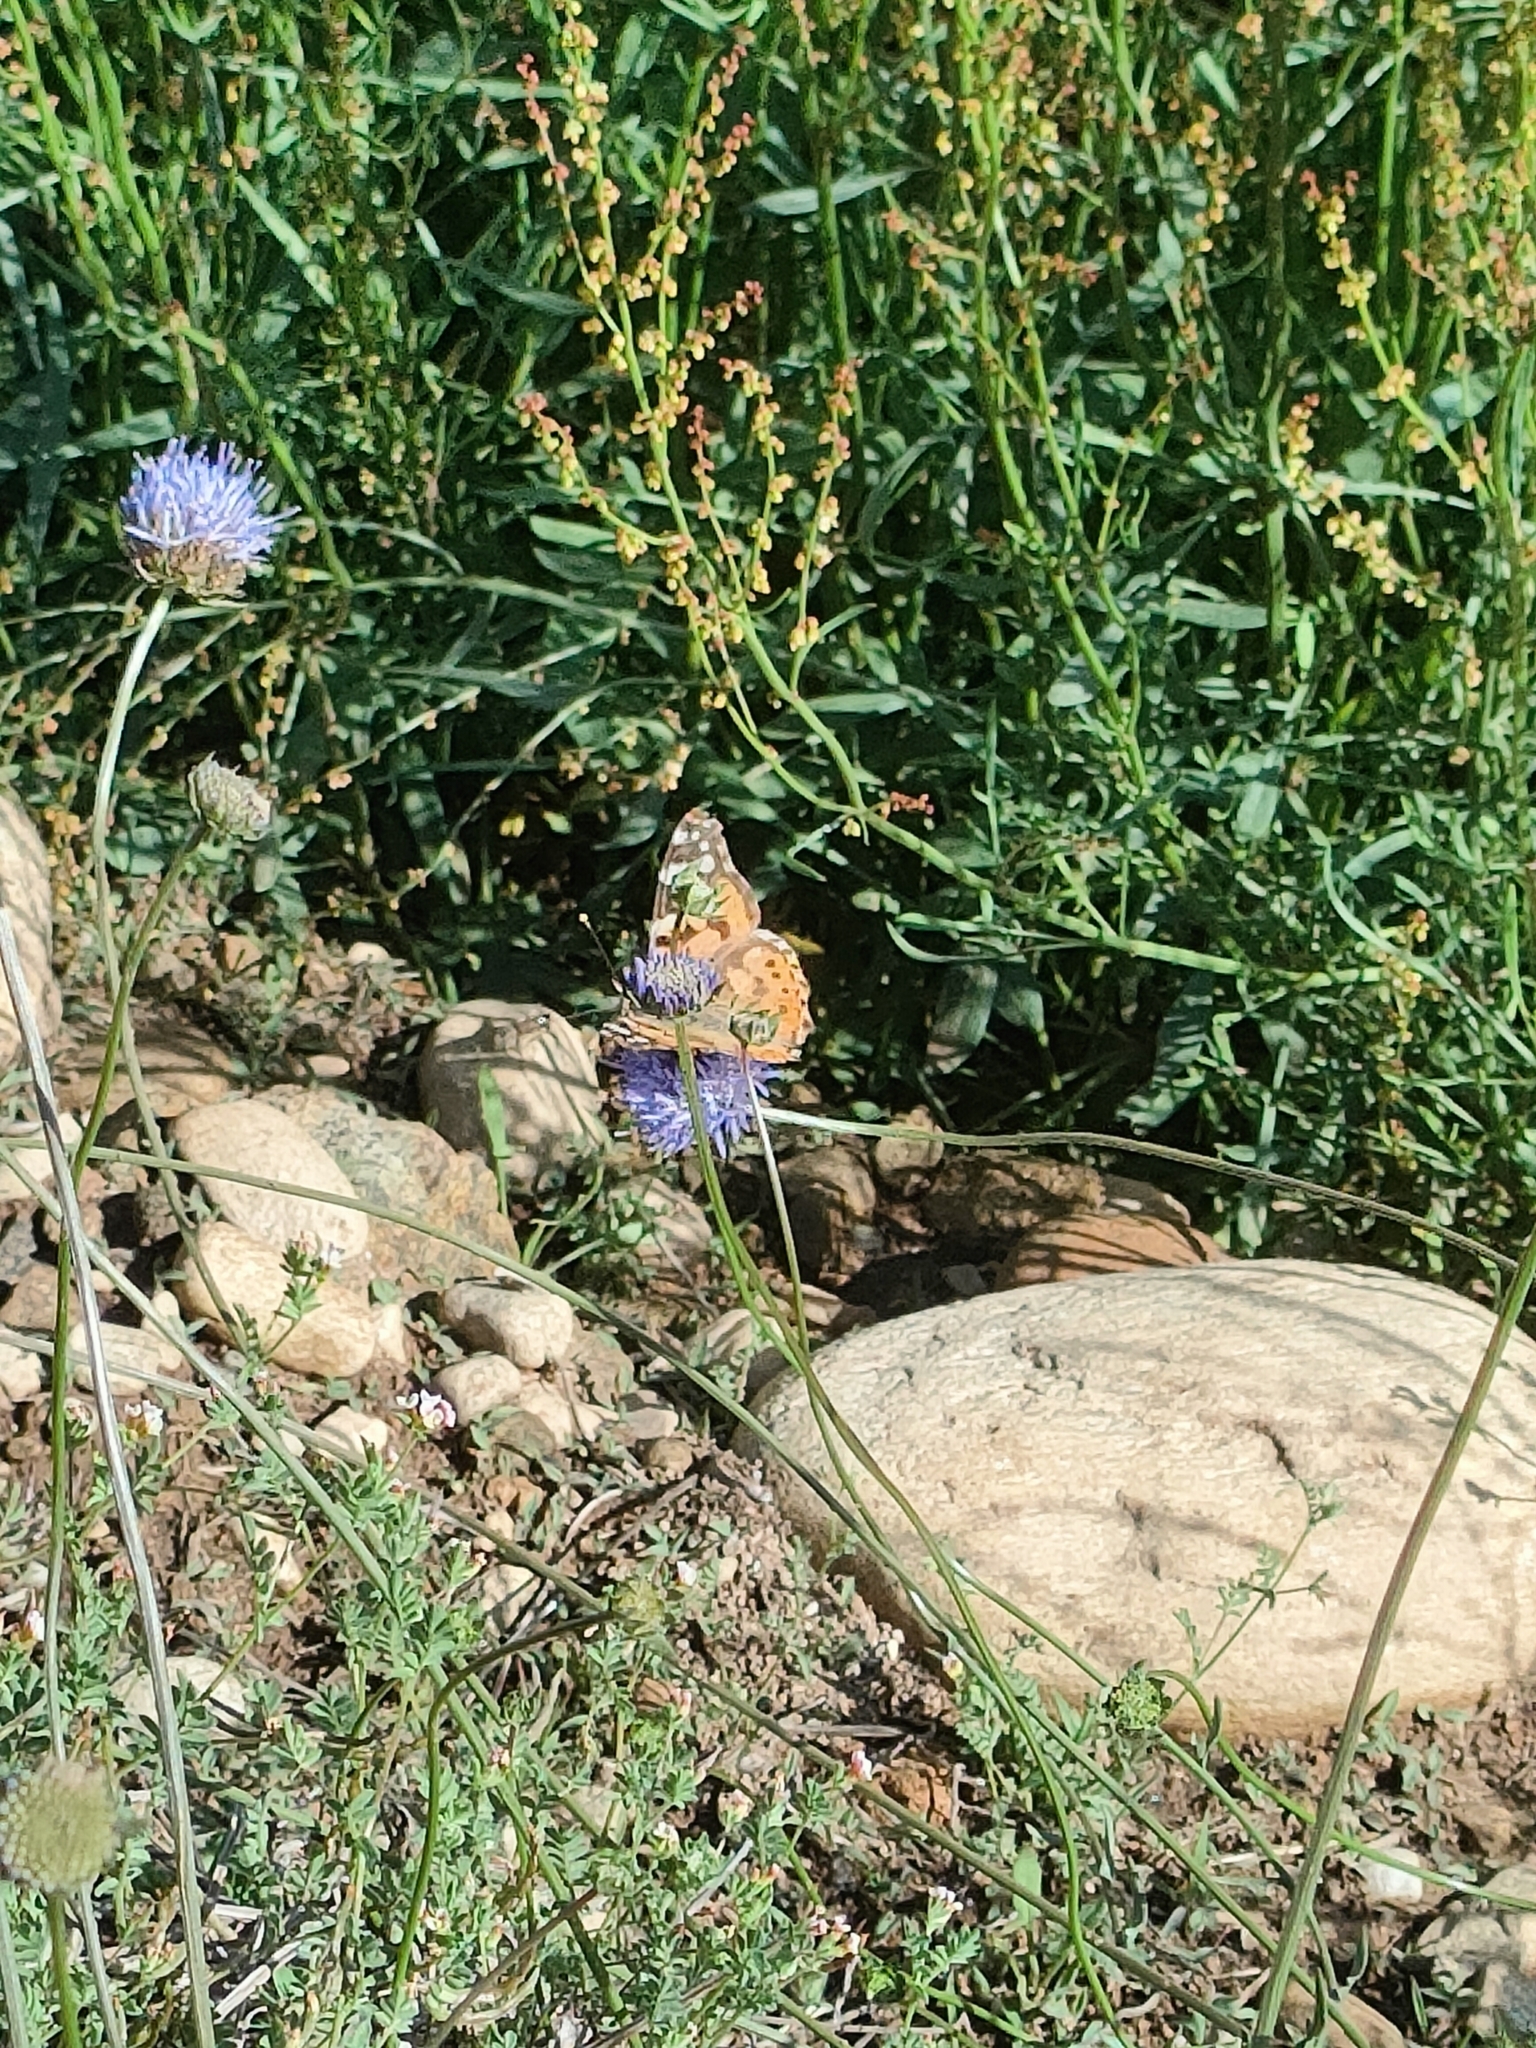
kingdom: Animalia
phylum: Arthropoda
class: Insecta
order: Lepidoptera
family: Nymphalidae
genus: Vanessa
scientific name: Vanessa cardui
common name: Painted lady
